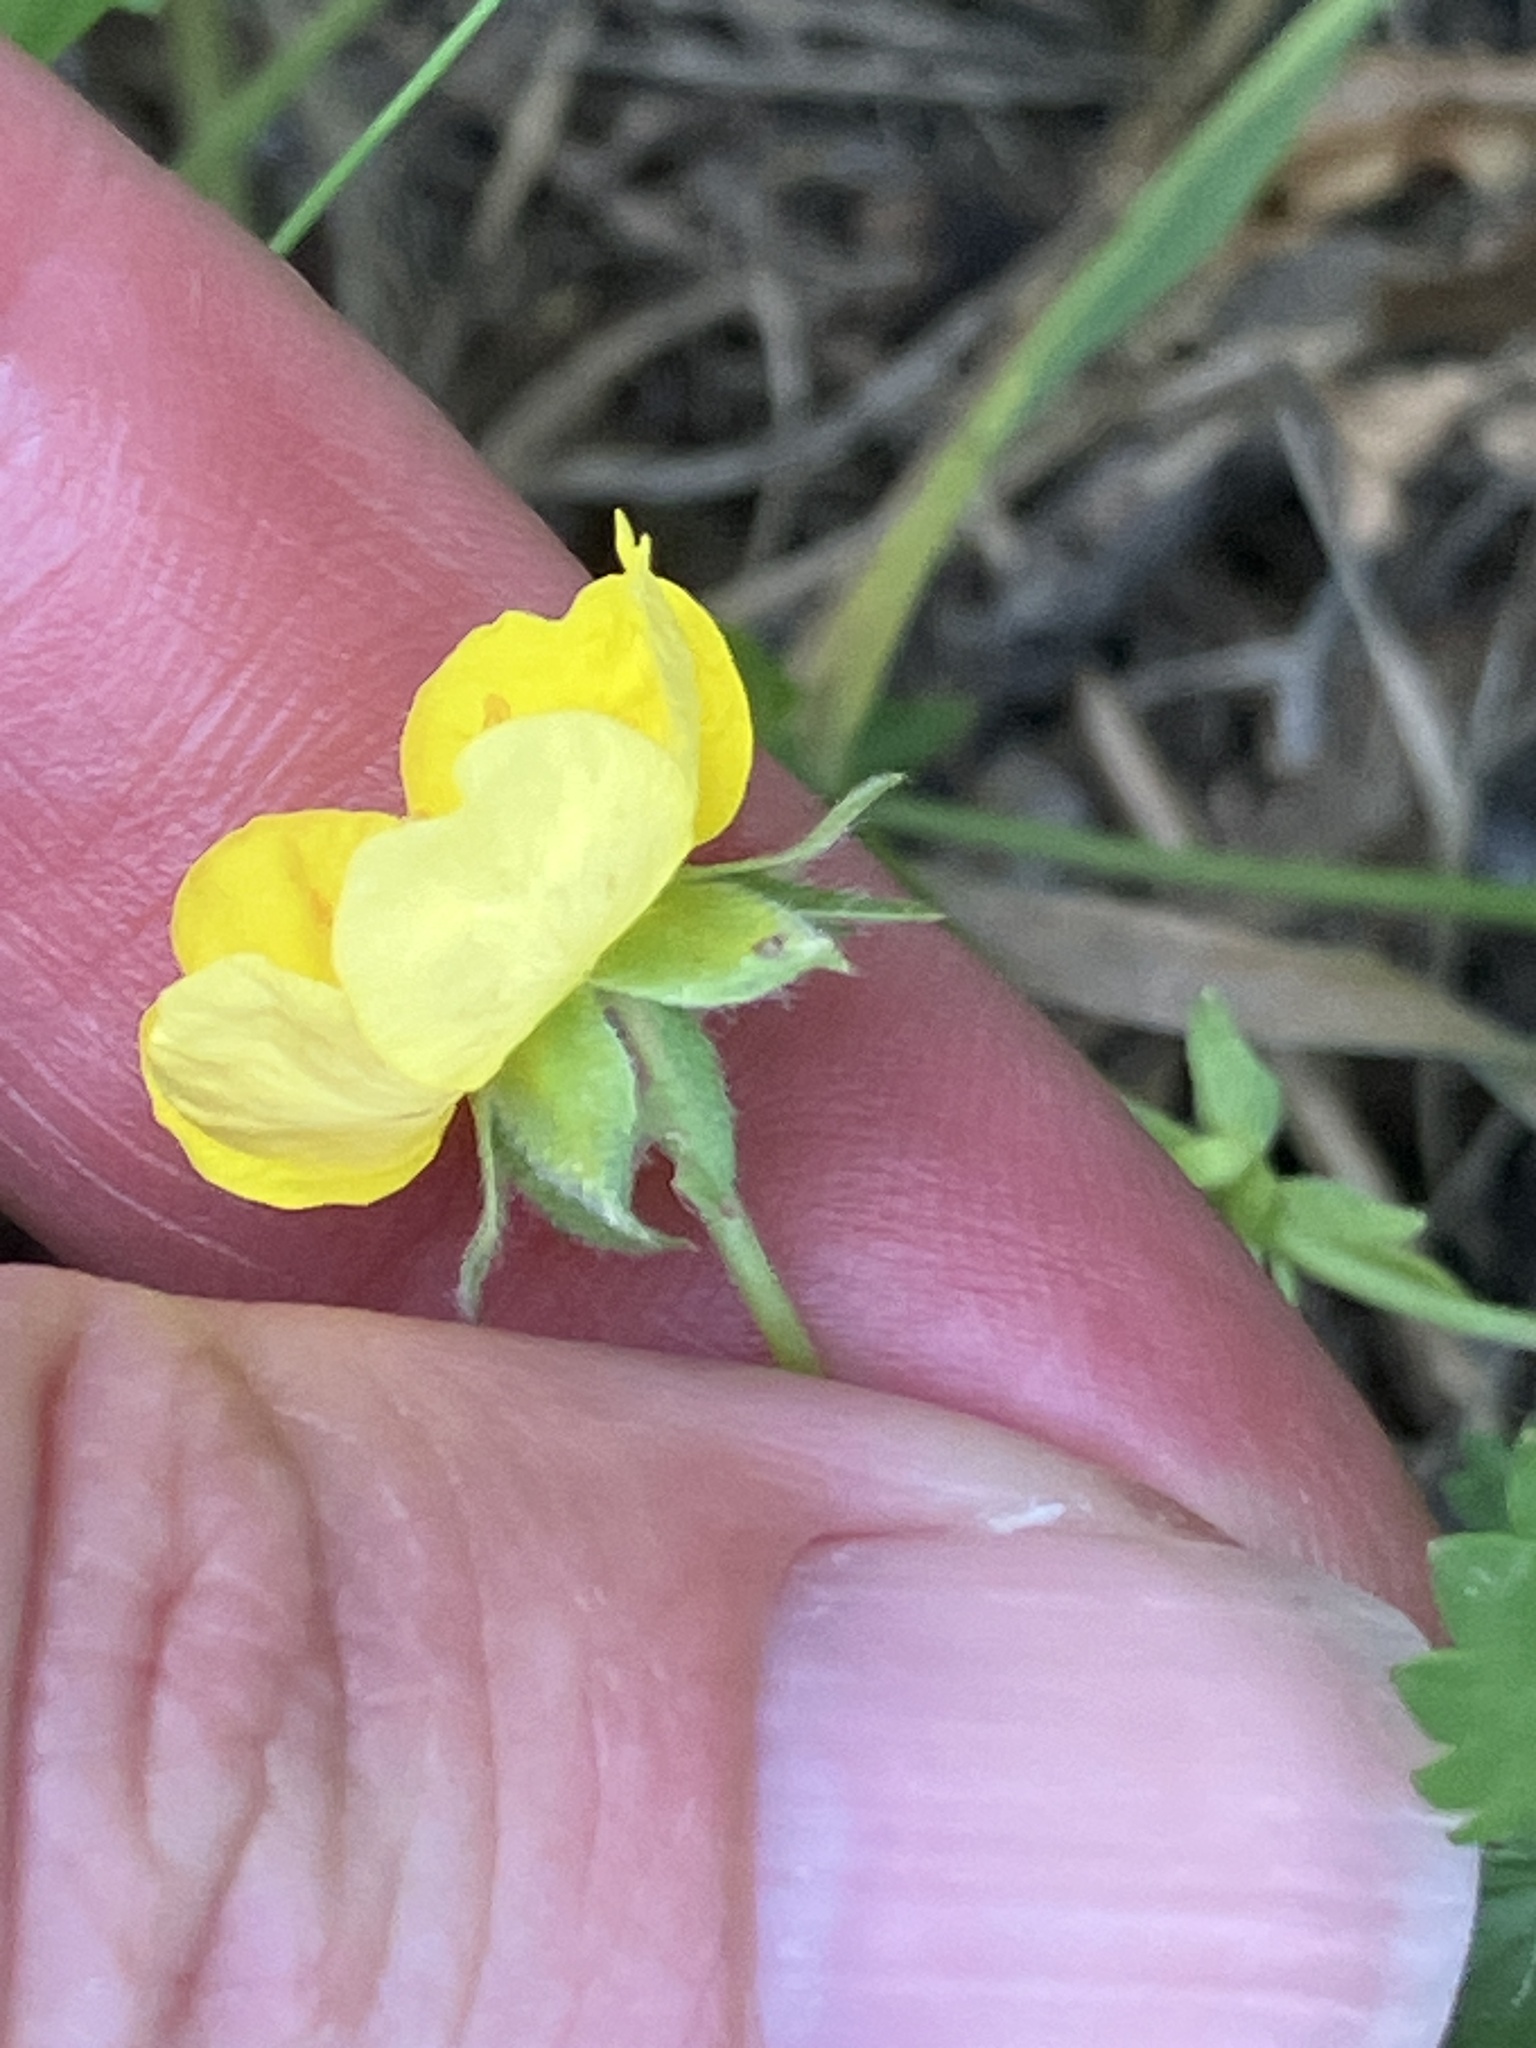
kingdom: Plantae
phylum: Tracheophyta
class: Magnoliopsida
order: Rosales
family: Rosaceae
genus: Potentilla
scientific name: Potentilla reptans
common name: Creeping cinquefoil
